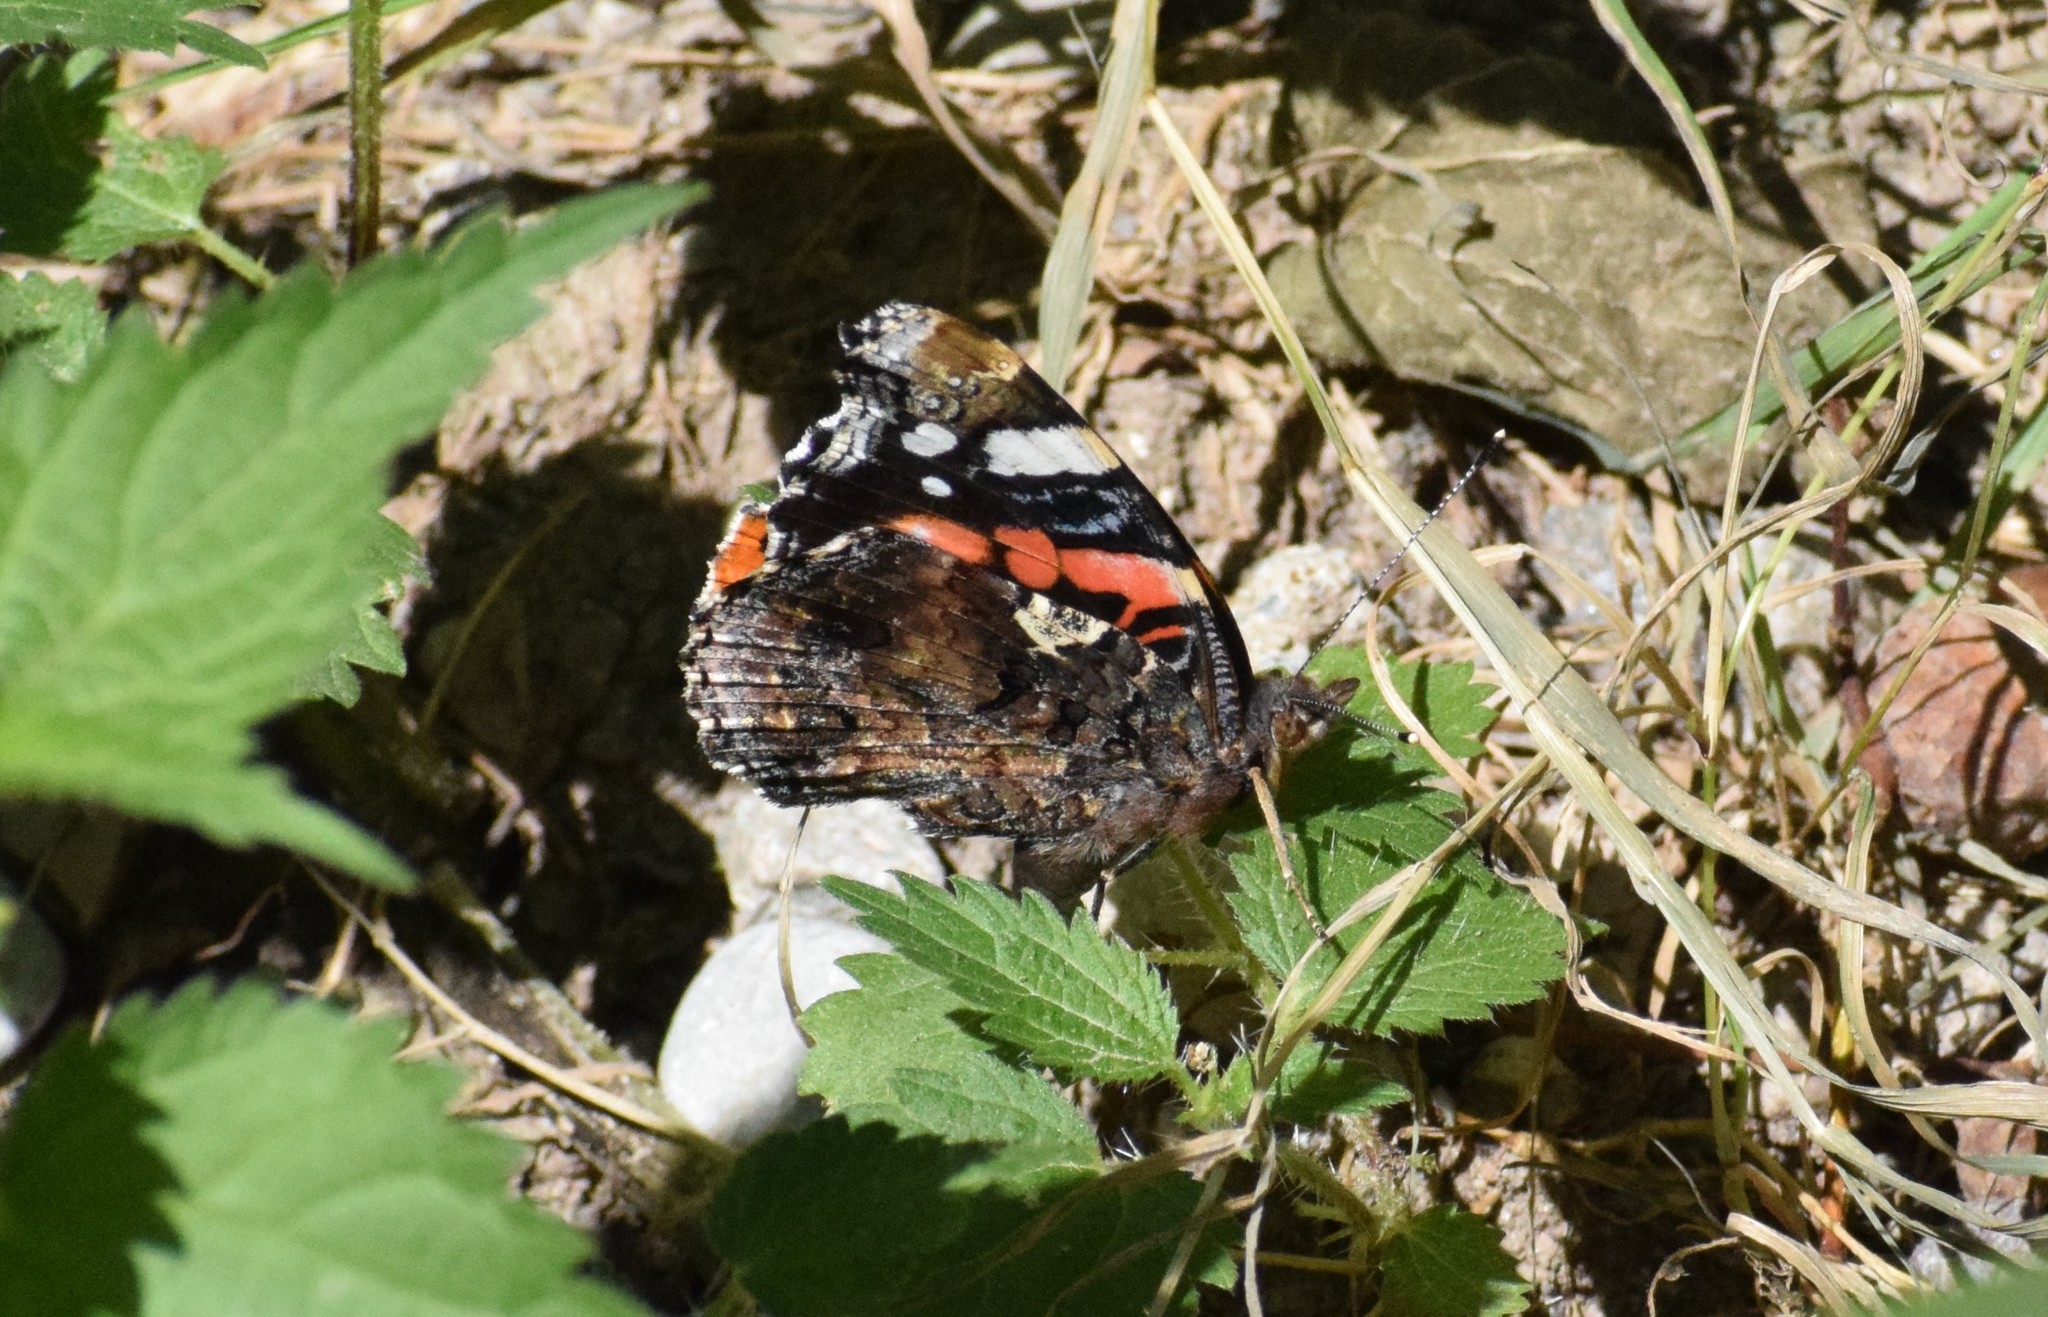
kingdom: Animalia
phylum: Arthropoda
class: Insecta
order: Lepidoptera
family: Nymphalidae
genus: Vanessa
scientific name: Vanessa atalanta
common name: Red admiral
